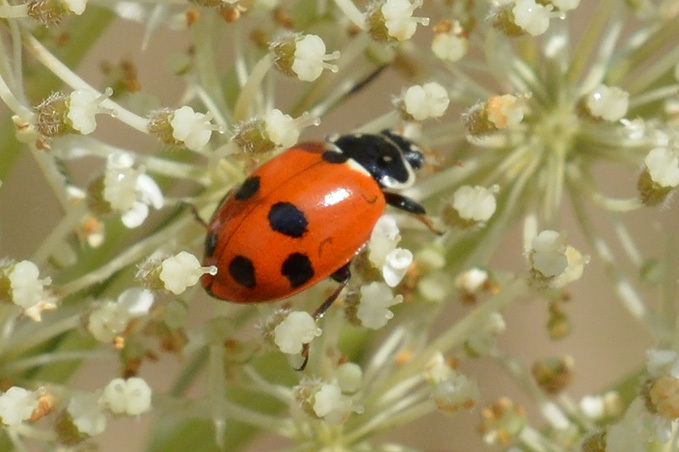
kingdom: Animalia
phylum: Arthropoda
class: Insecta
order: Coleoptera
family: Coccinellidae
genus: Hippodamia
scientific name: Hippodamia variegata
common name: Ladybird beetle
